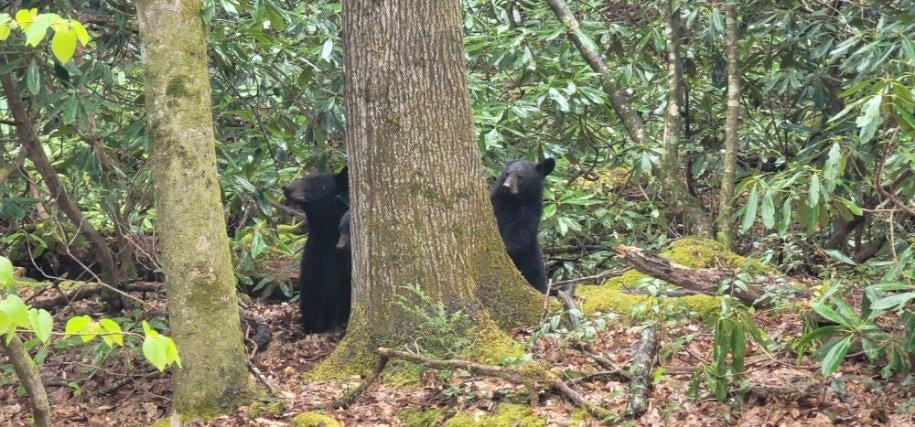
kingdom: Animalia
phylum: Chordata
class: Mammalia
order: Carnivora
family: Ursidae
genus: Ursus
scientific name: Ursus americanus
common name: American black bear
